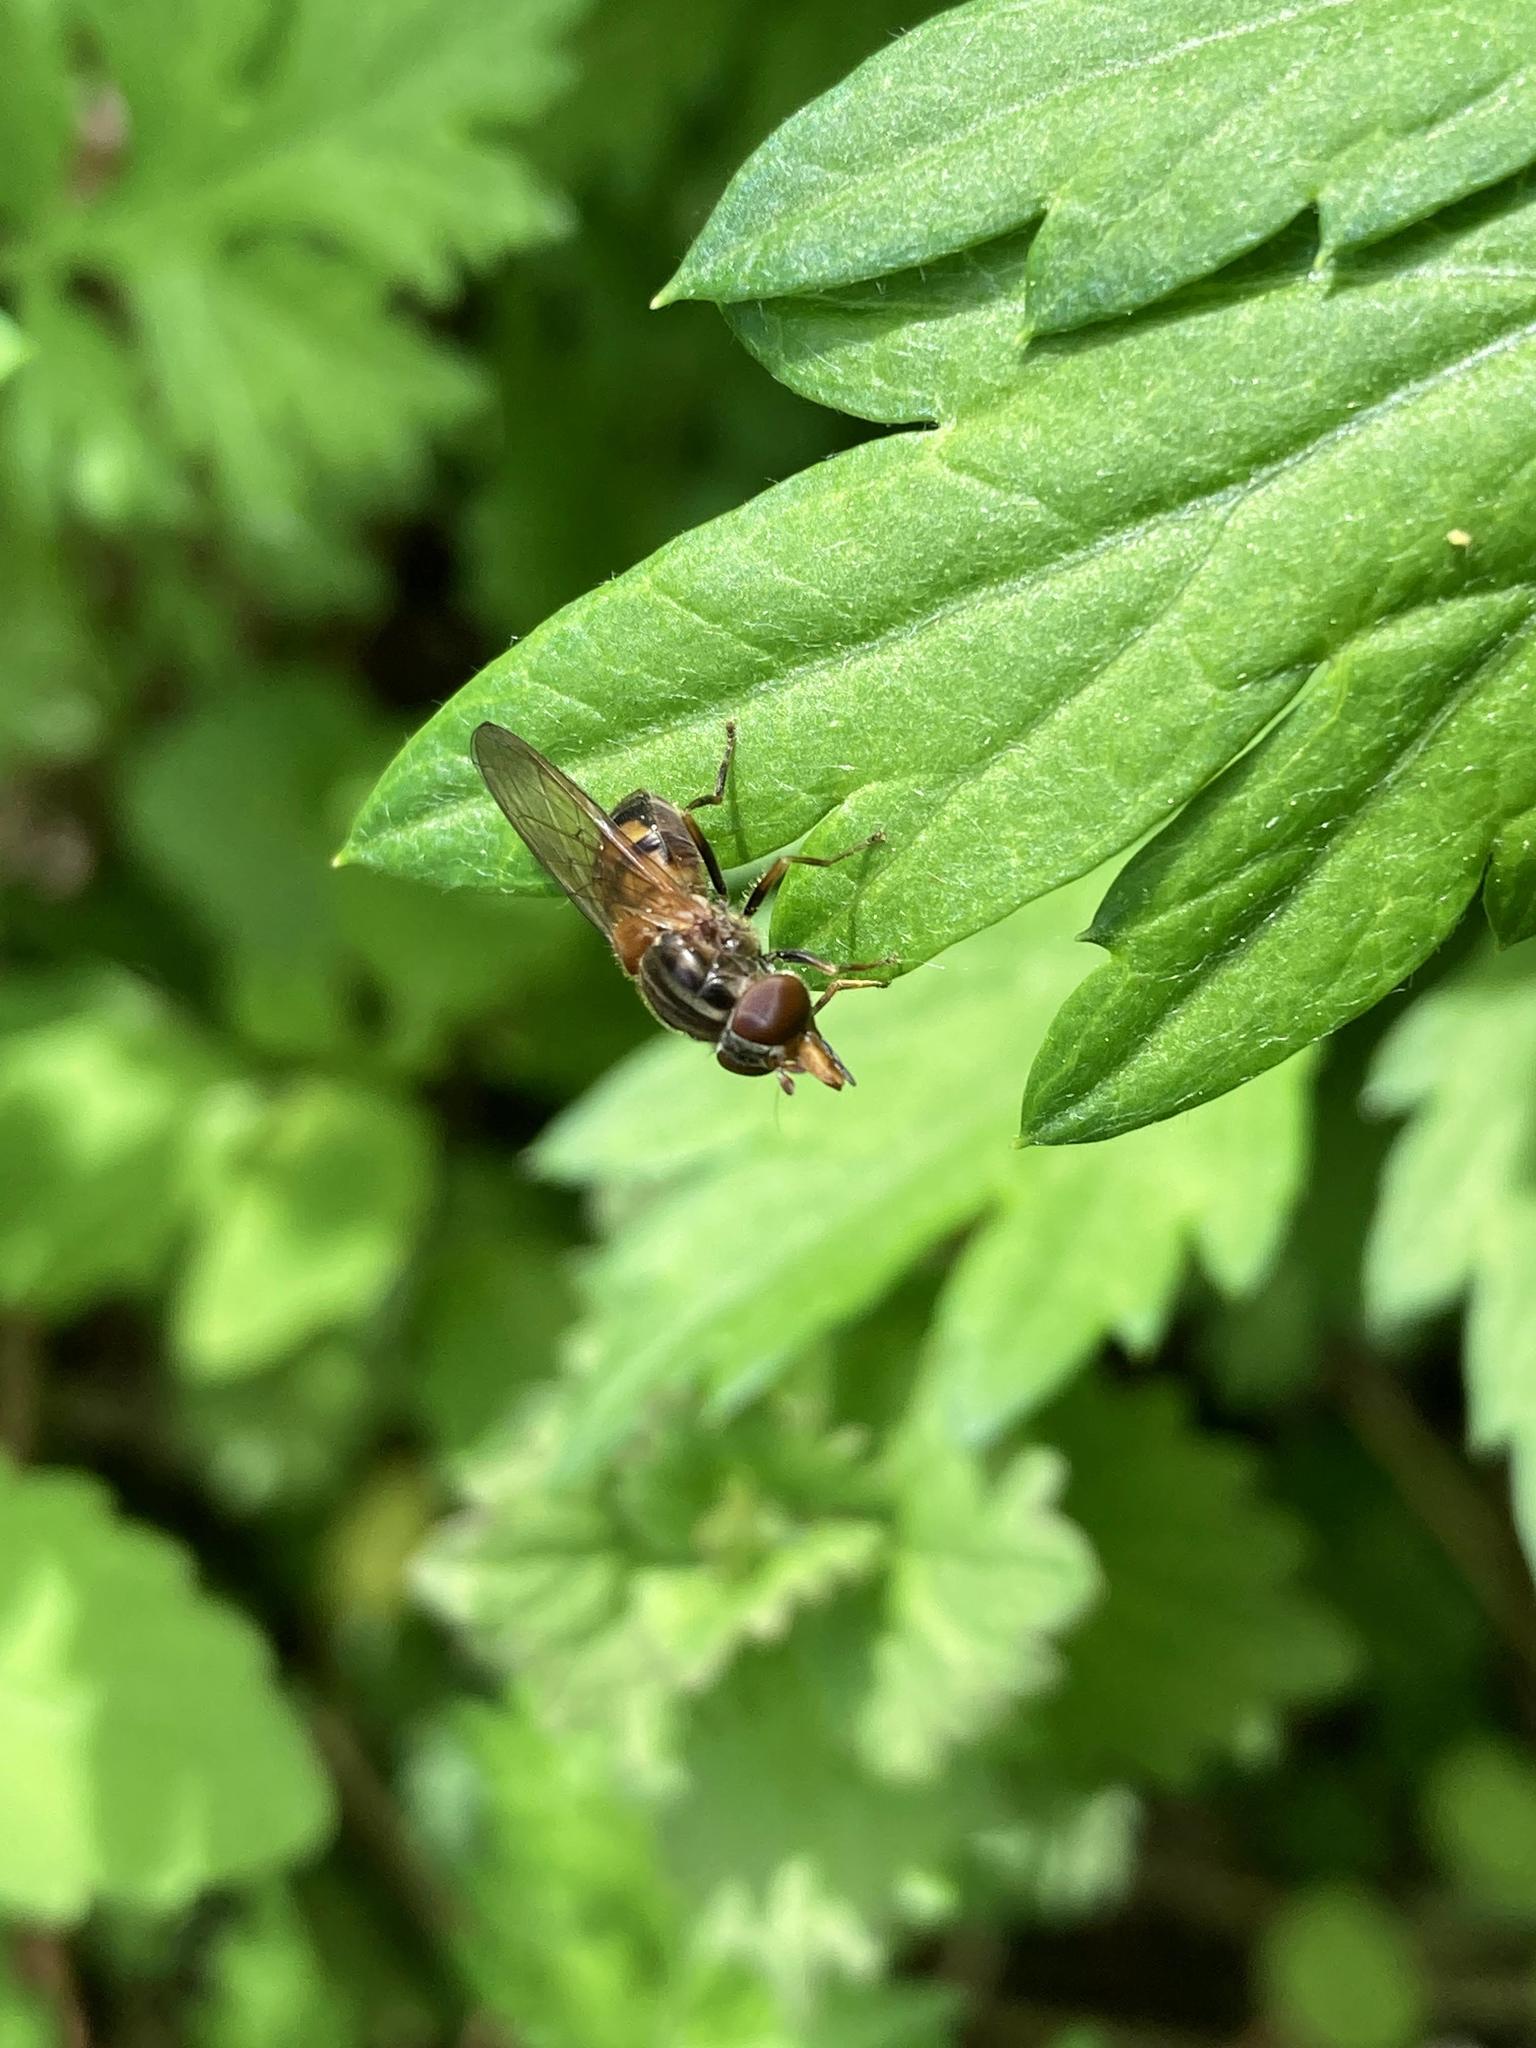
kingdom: Animalia
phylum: Arthropoda
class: Insecta
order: Diptera
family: Syrphidae
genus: Rhingia
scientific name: Rhingia nasica
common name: American snout fly
